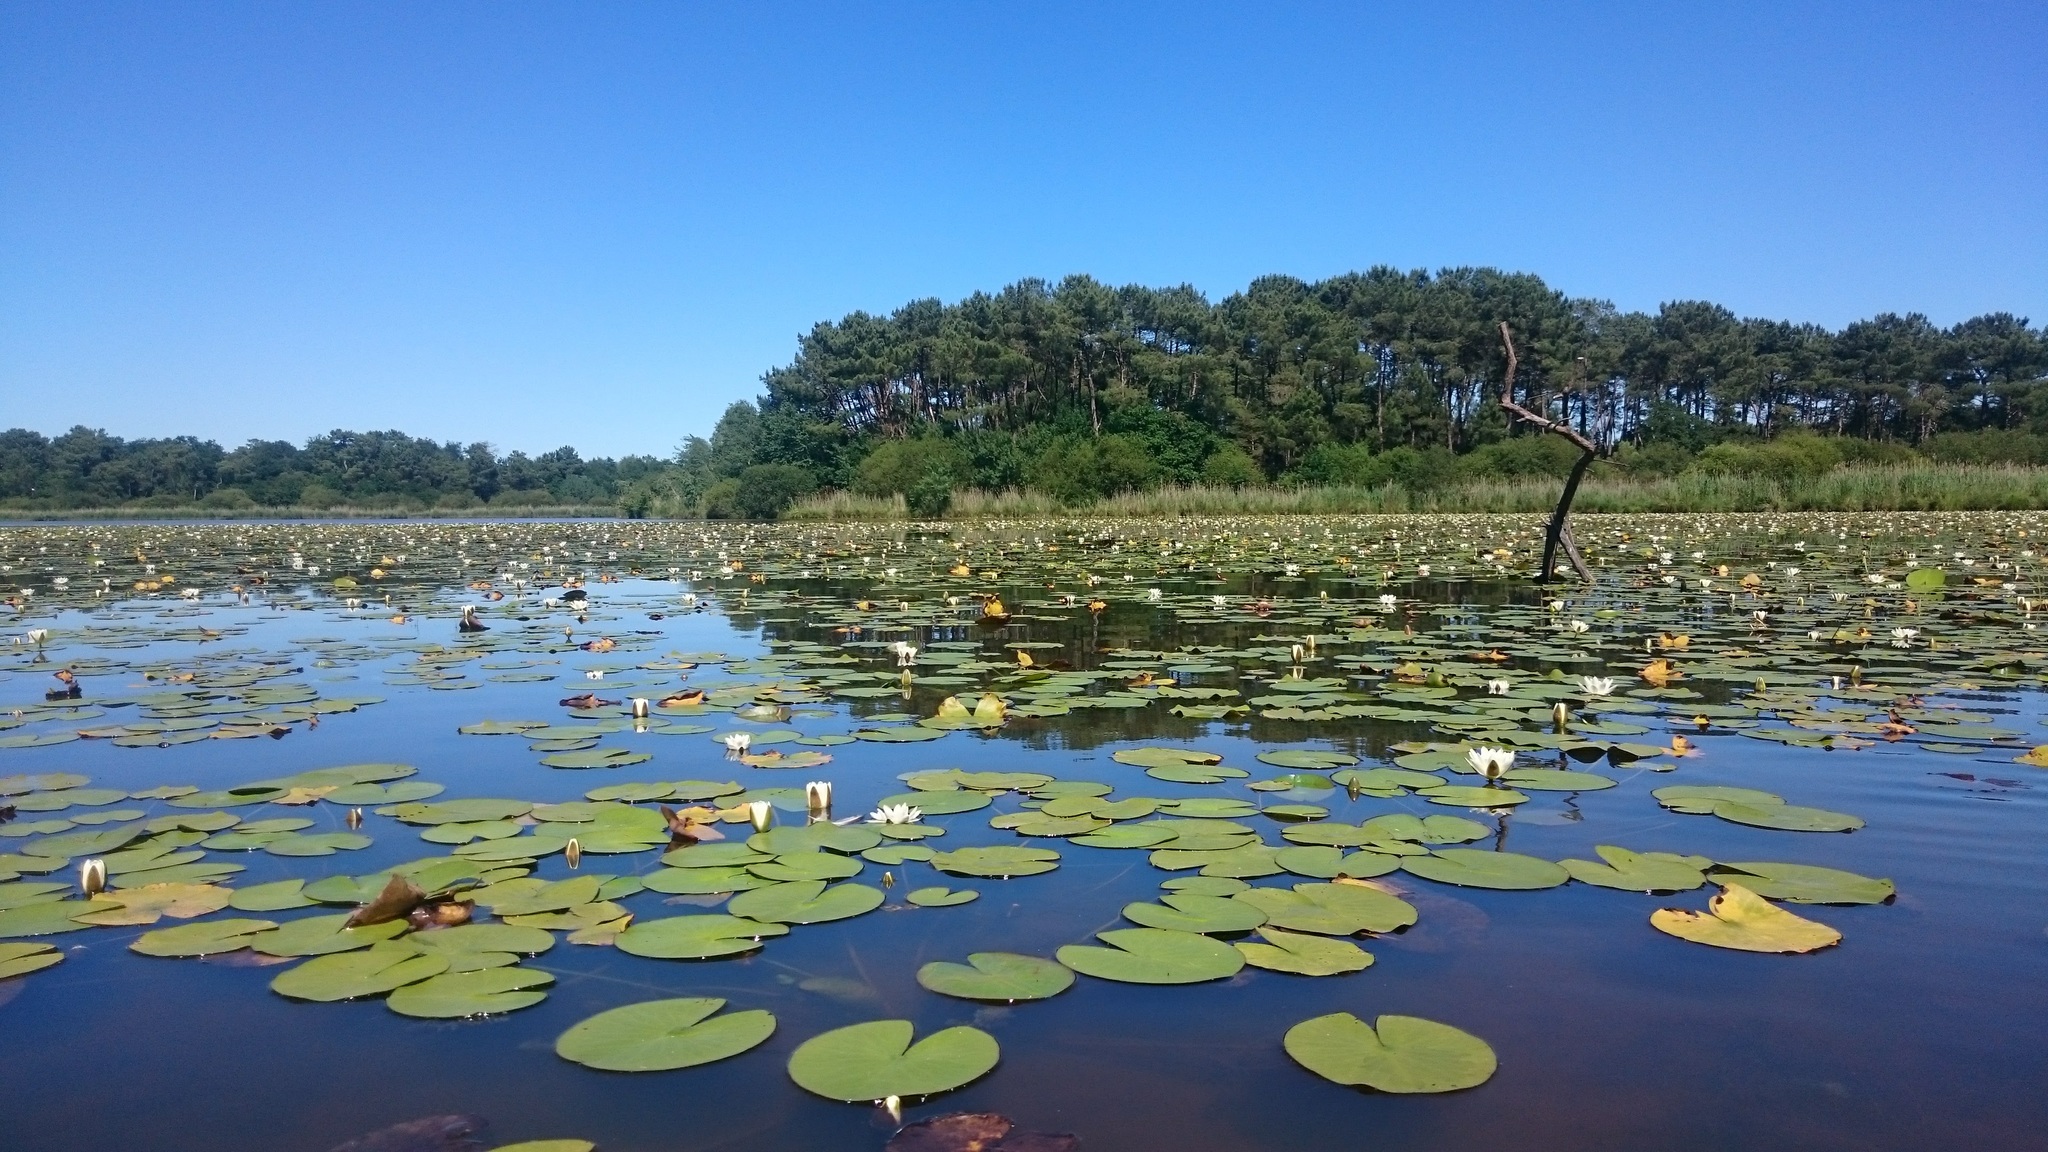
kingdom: Plantae
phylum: Tracheophyta
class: Magnoliopsida
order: Nymphaeales
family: Nymphaeaceae
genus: Nymphaea
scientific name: Nymphaea alba
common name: White water-lily
